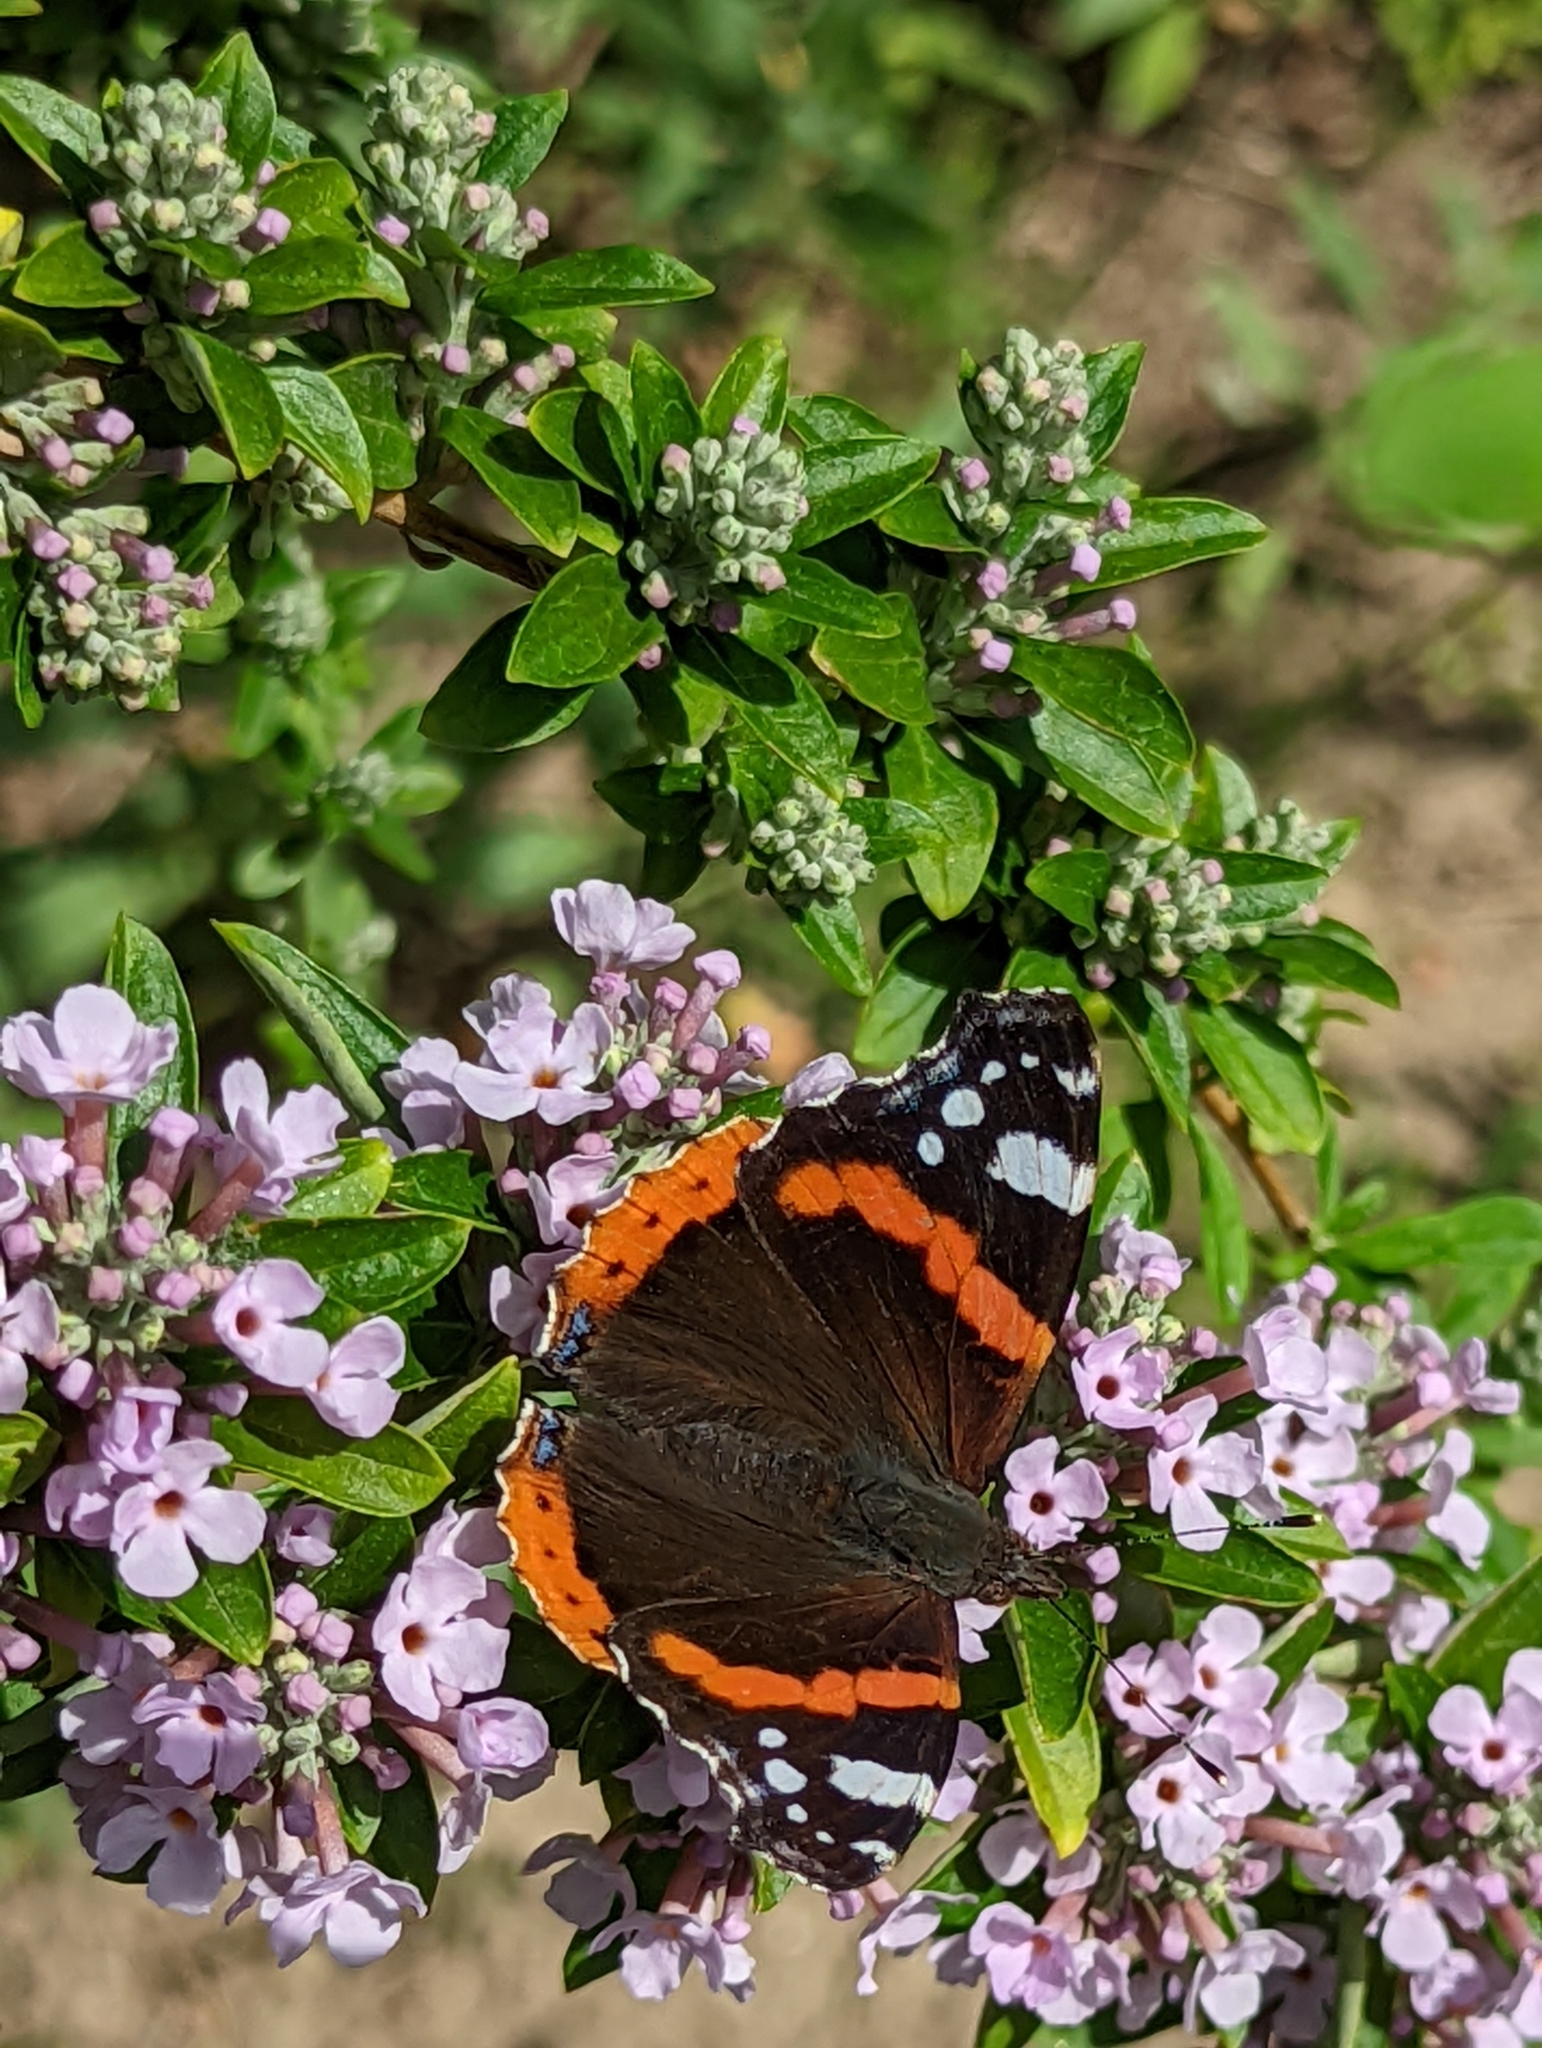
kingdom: Animalia
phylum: Arthropoda
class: Insecta
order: Lepidoptera
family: Nymphalidae
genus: Vanessa
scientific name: Vanessa atalanta
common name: Red admiral
